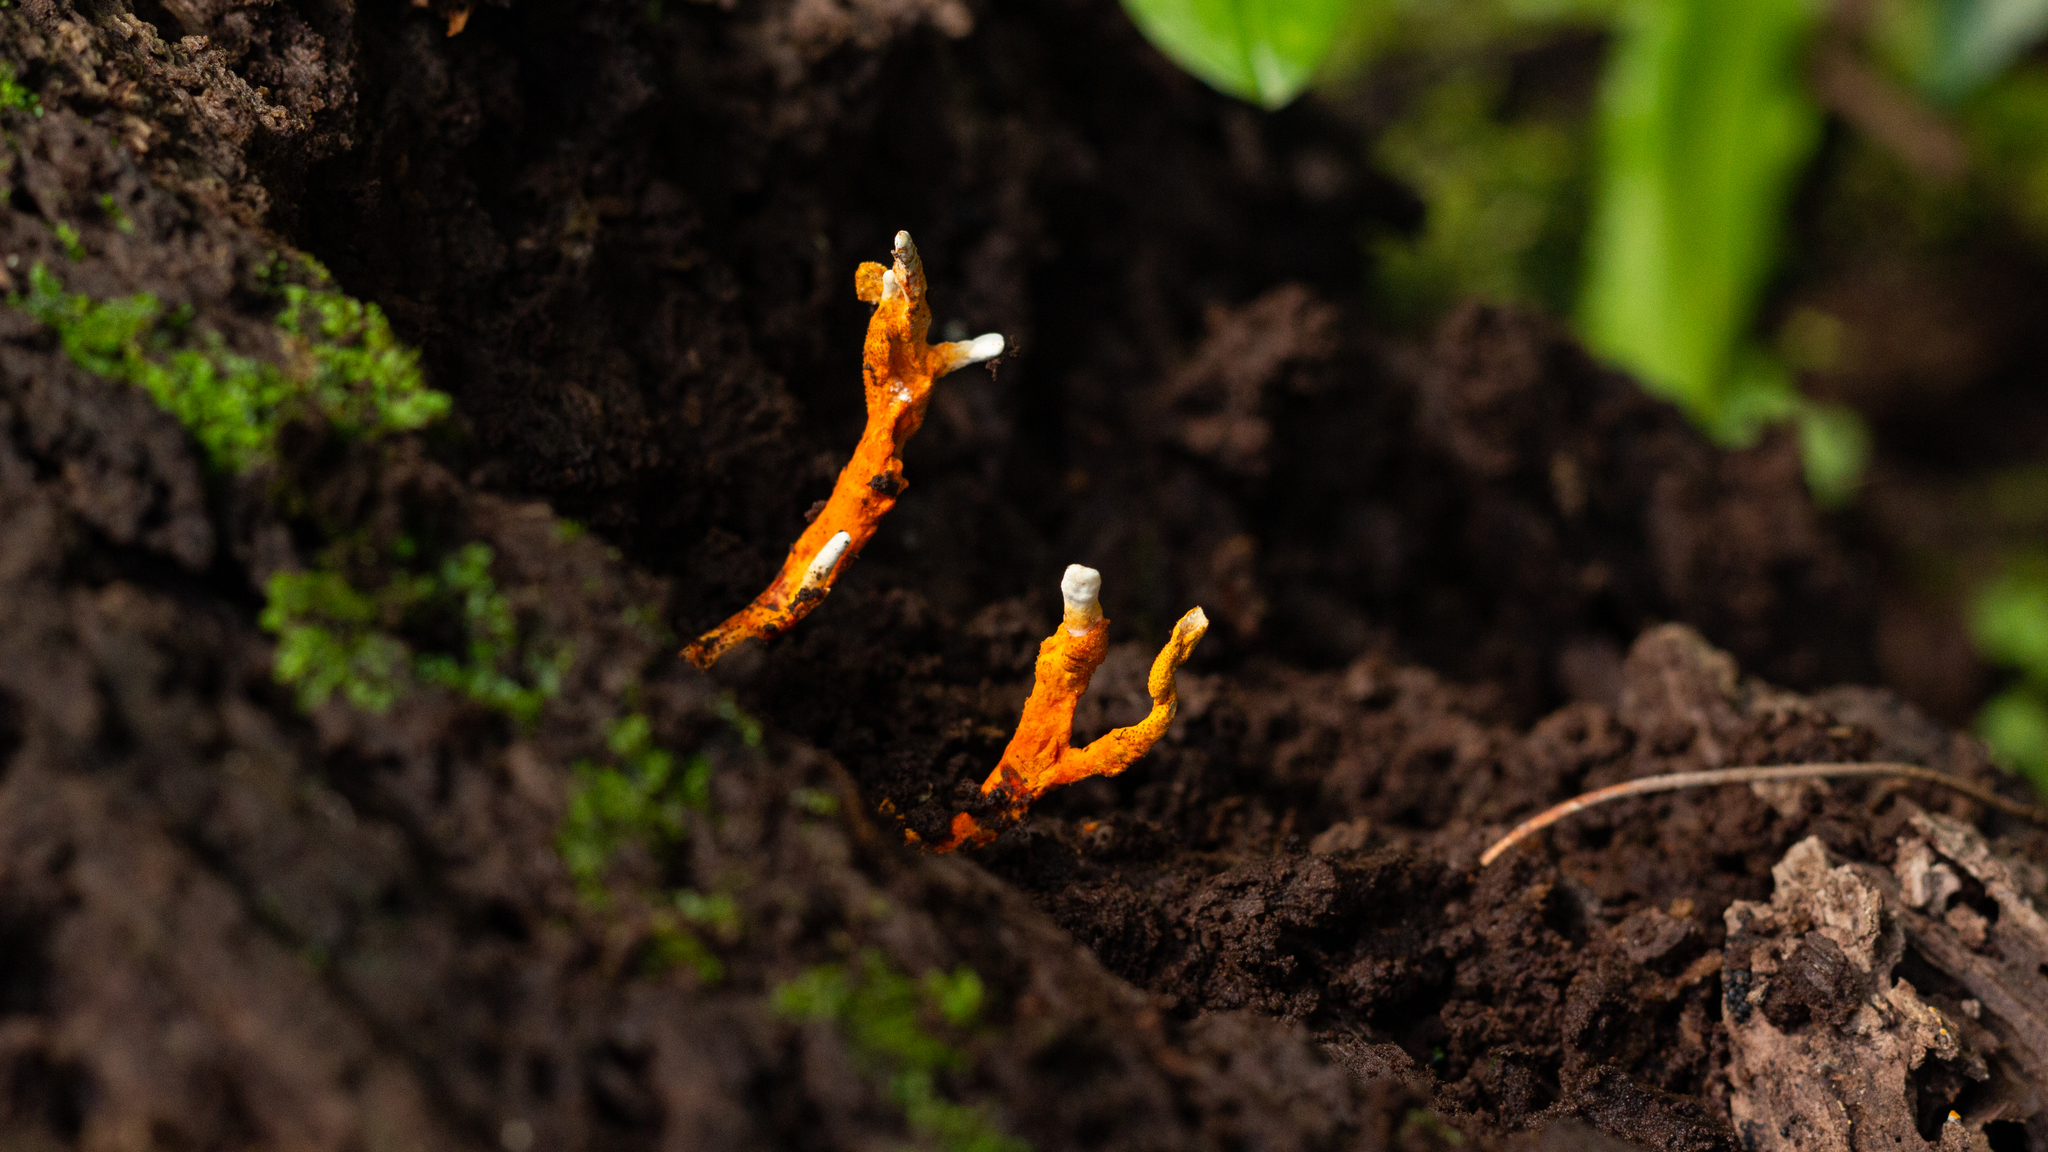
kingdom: Fungi
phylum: Ascomycota
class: Sordariomycetes
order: Hypocreales
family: Clavicipitaceae
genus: Nigelia
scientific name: Nigelia martiale
